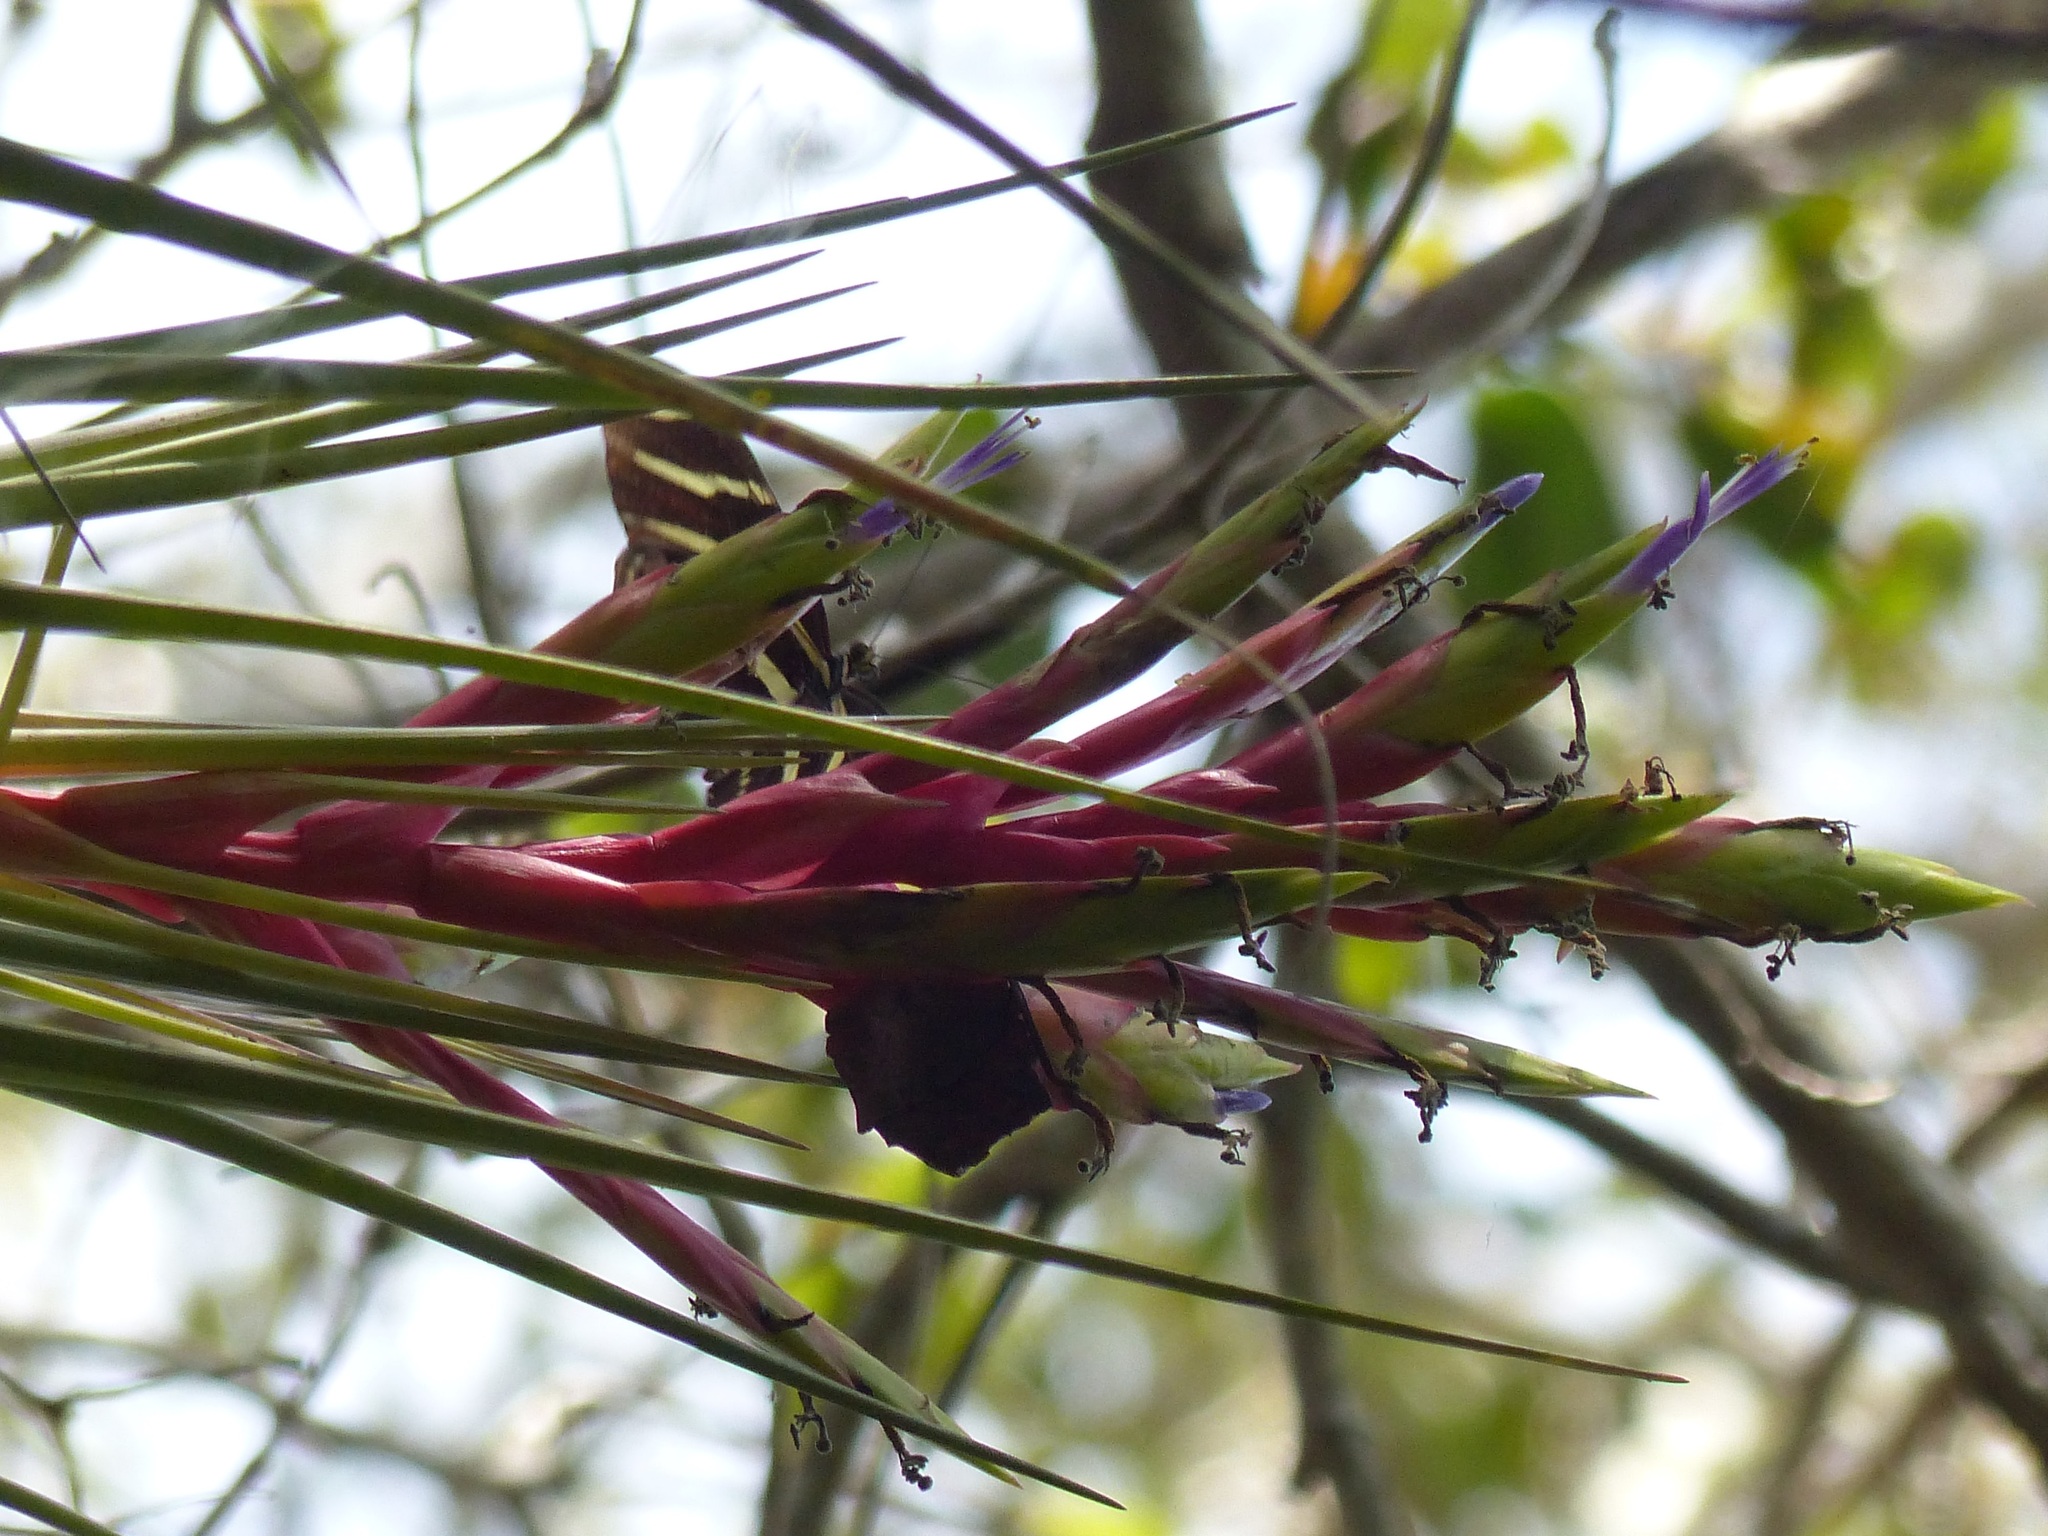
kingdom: Plantae
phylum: Tracheophyta
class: Liliopsida
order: Poales
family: Bromeliaceae
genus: Tillandsia
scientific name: Tillandsia fasciculata
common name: Giant airplant
